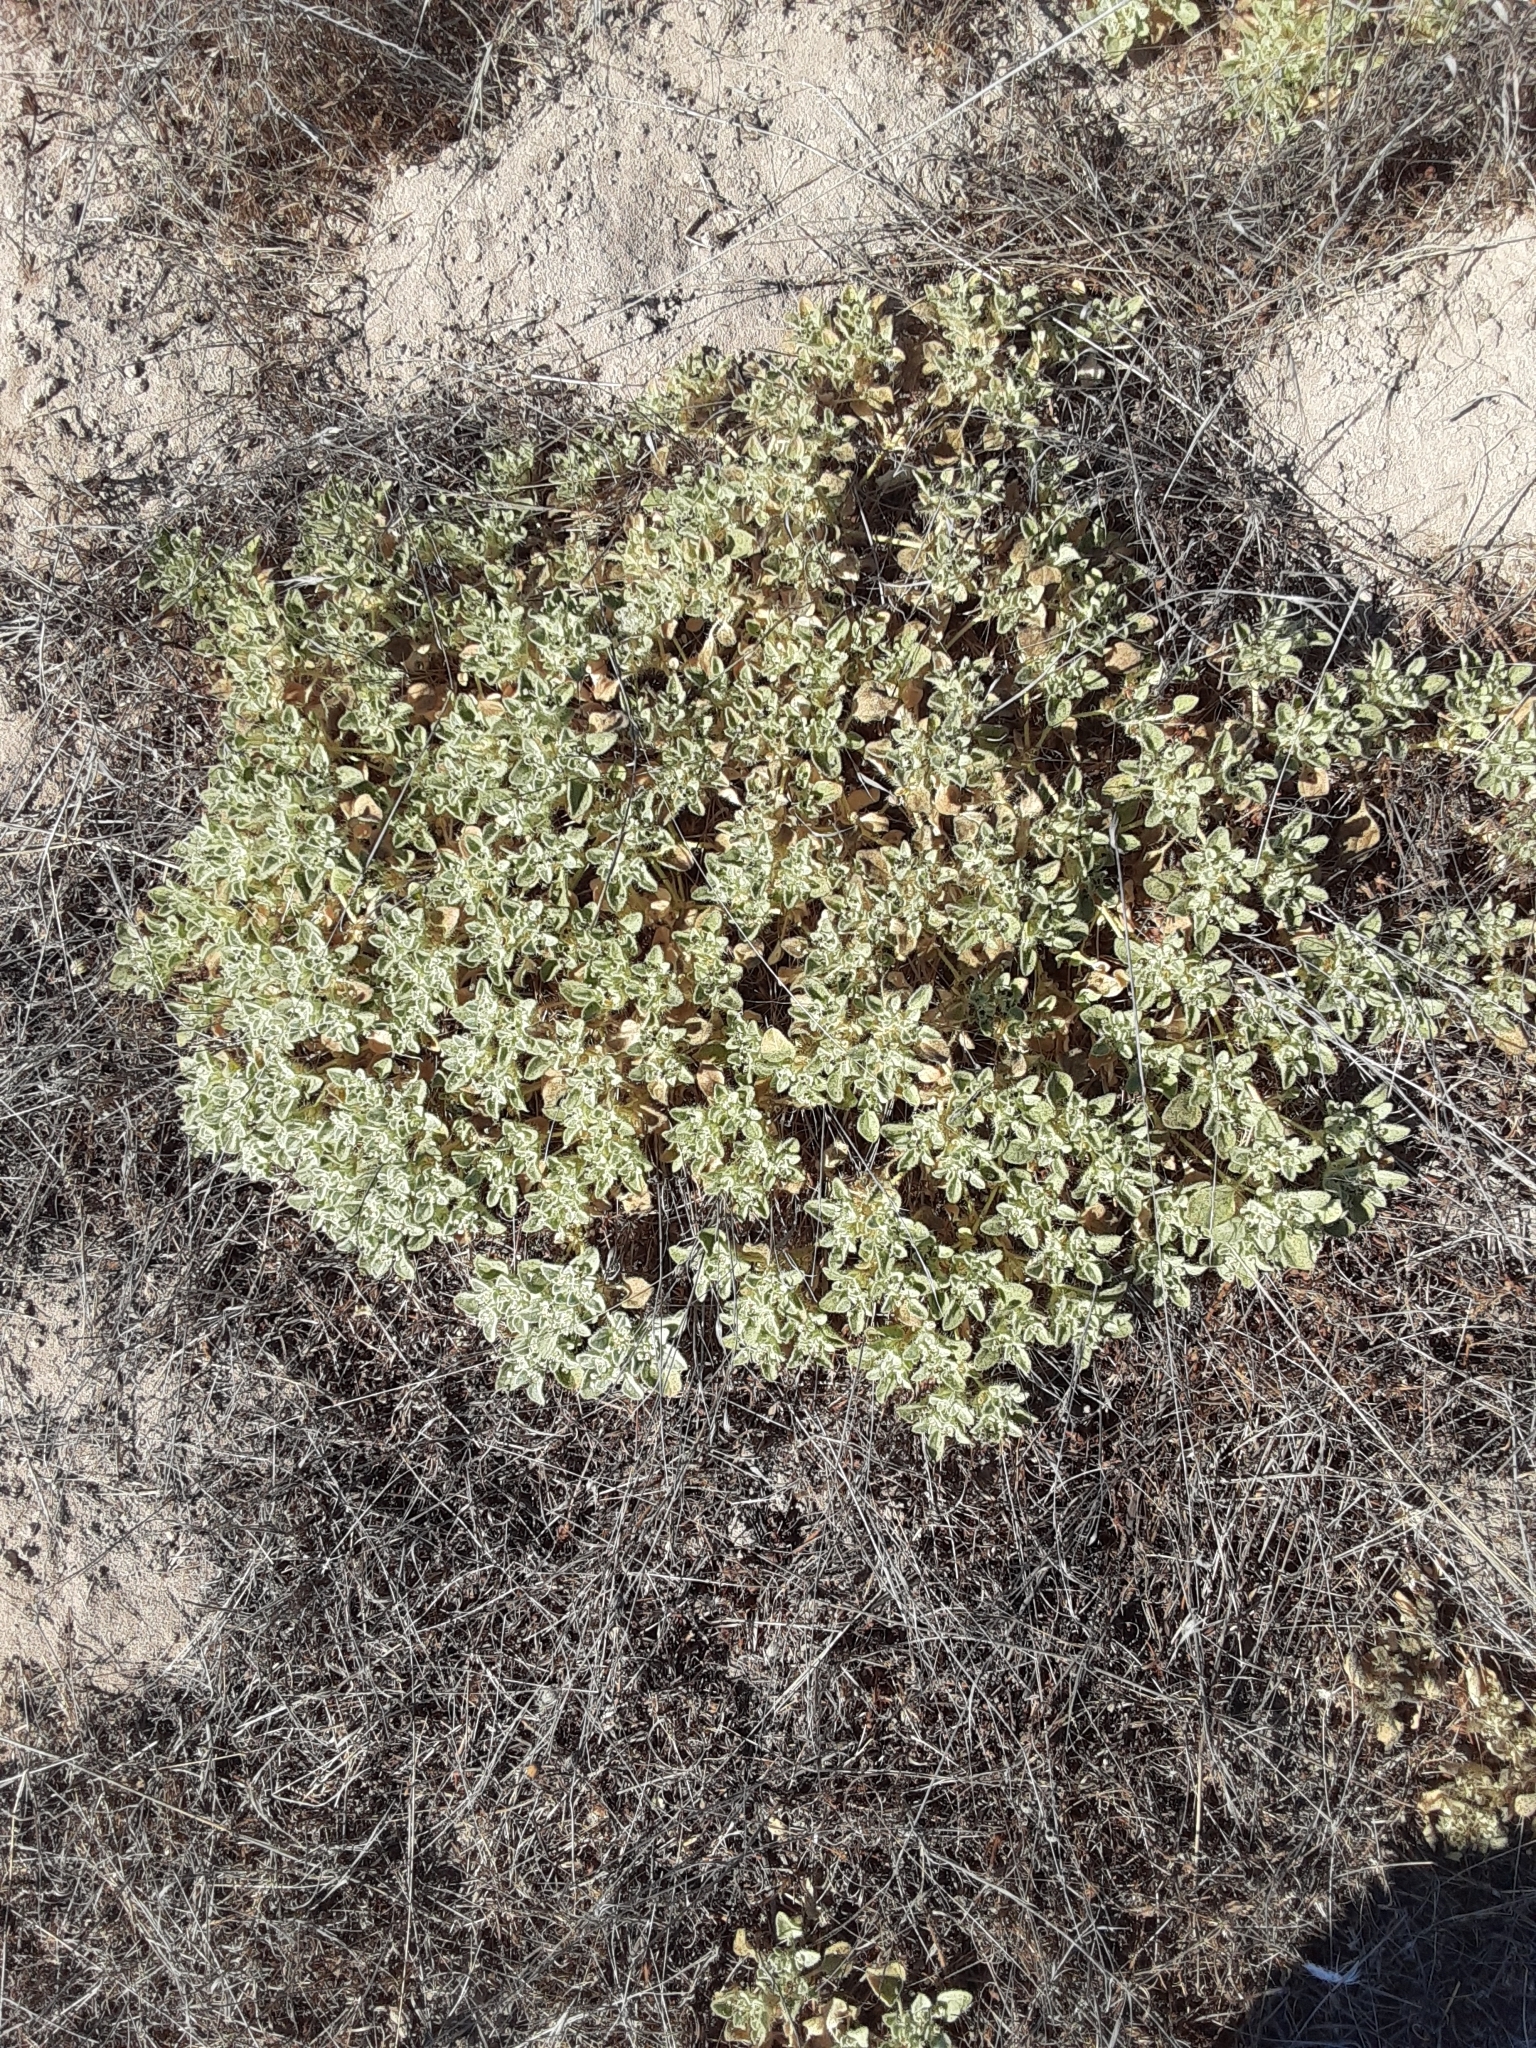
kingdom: Plantae
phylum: Tracheophyta
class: Magnoliopsida
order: Malpighiales
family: Euphorbiaceae
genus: Croton
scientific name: Croton setiger
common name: Dove weed
